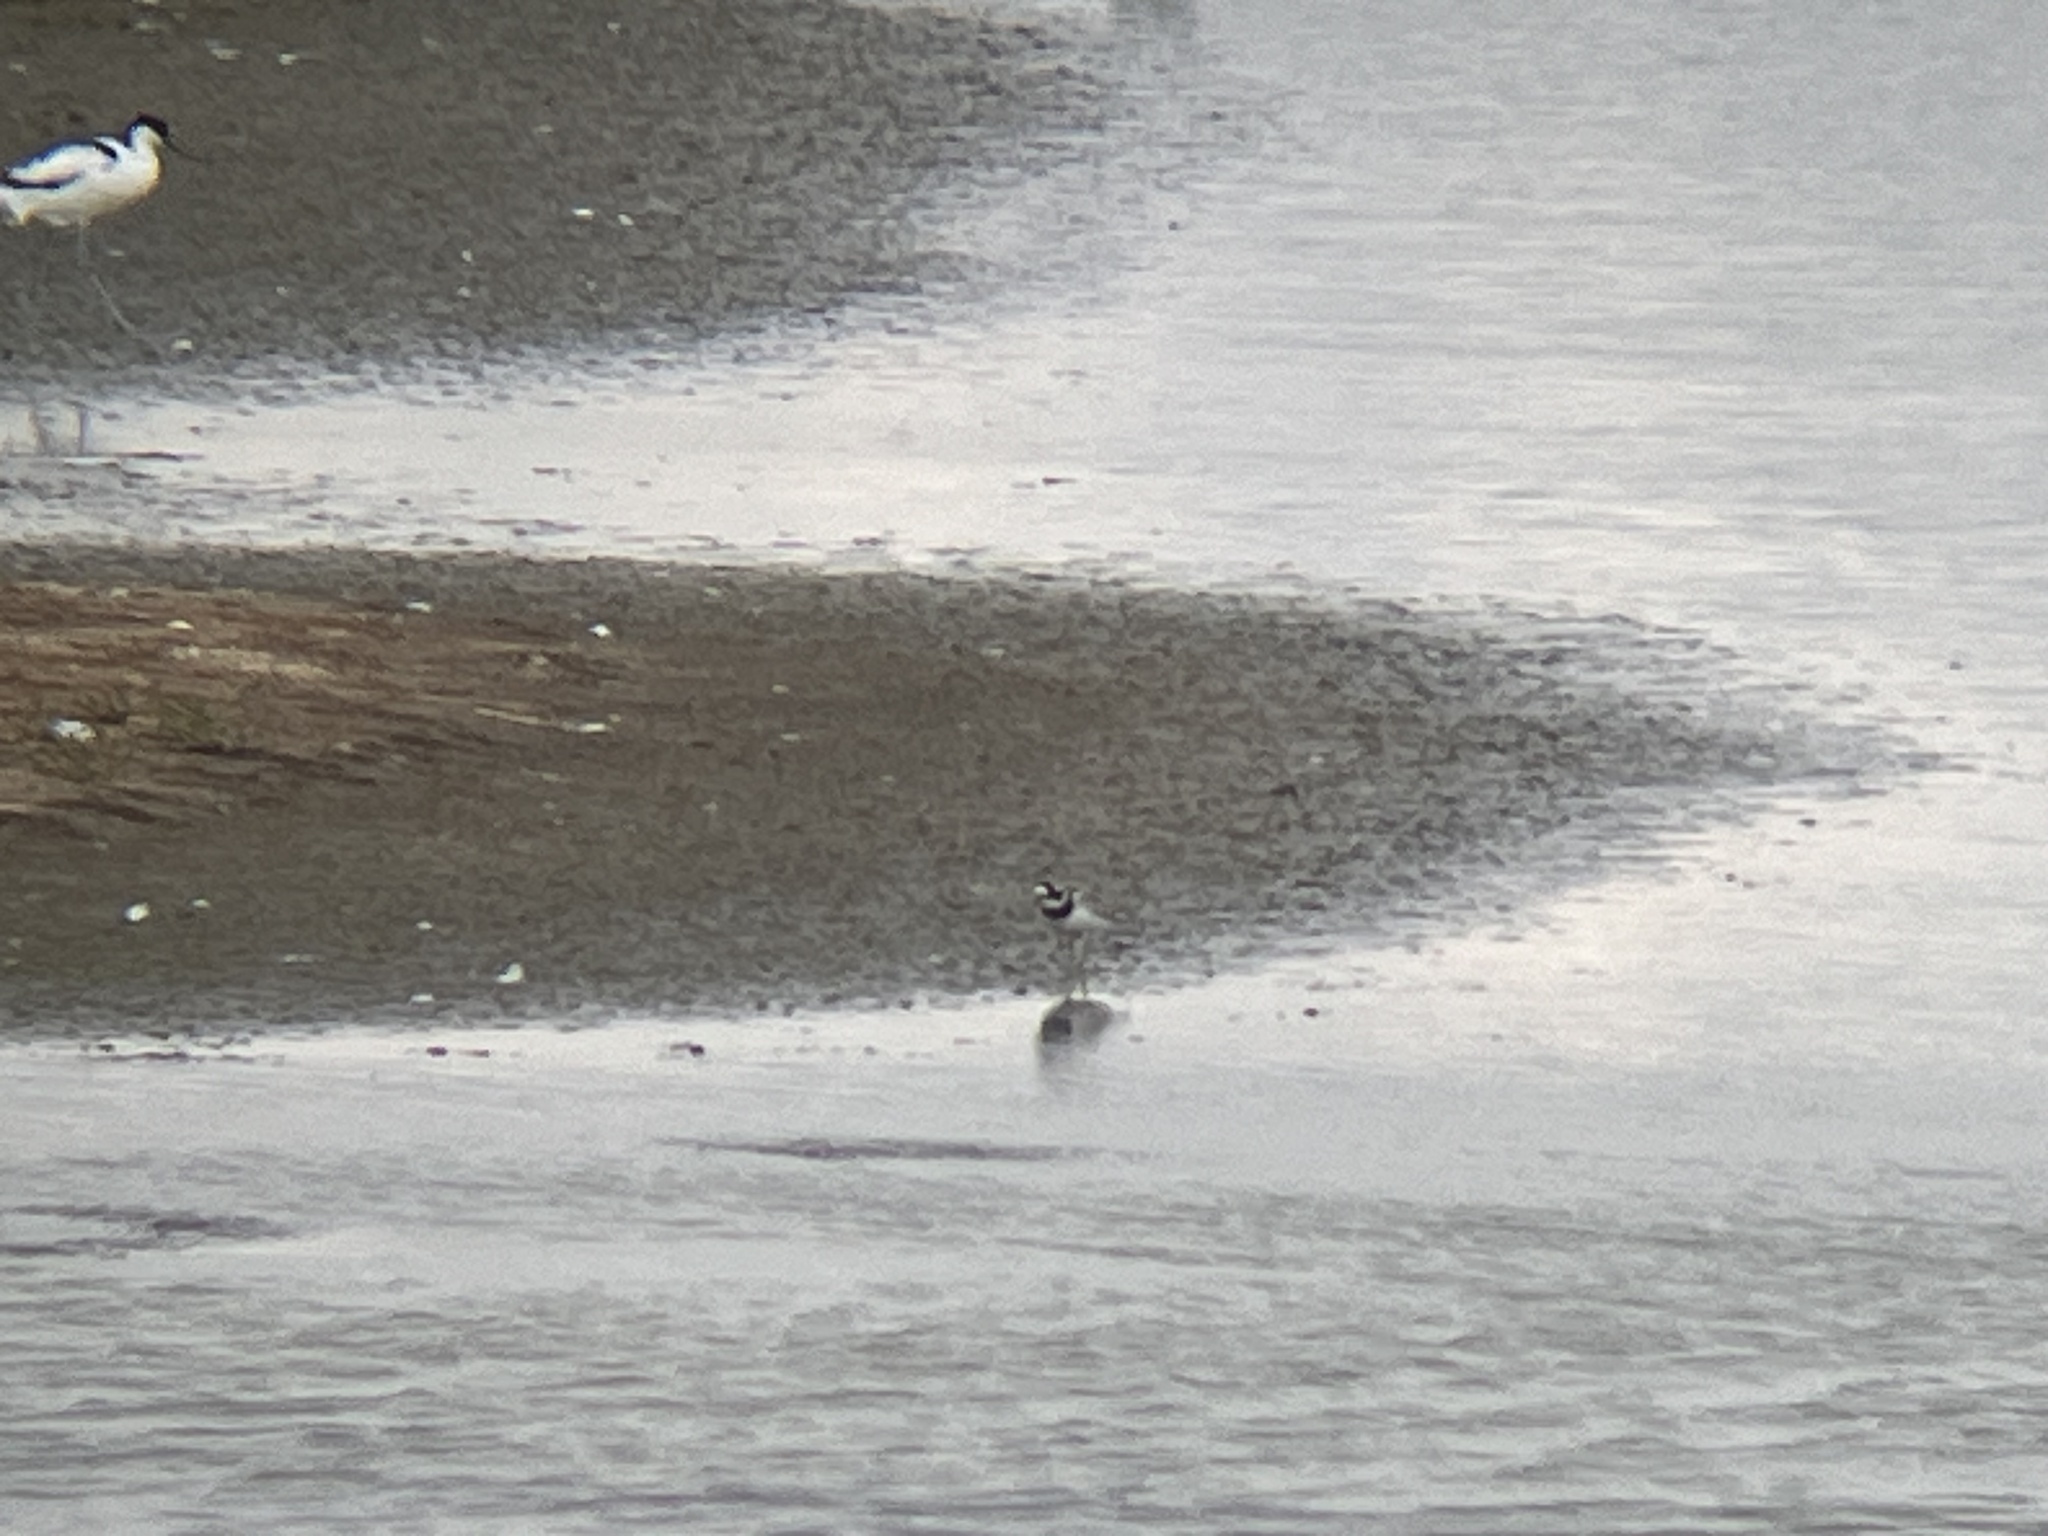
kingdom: Animalia
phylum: Chordata
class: Aves
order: Charadriiformes
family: Charadriidae
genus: Charadrius
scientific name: Charadrius hiaticula
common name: Common ringed plover
